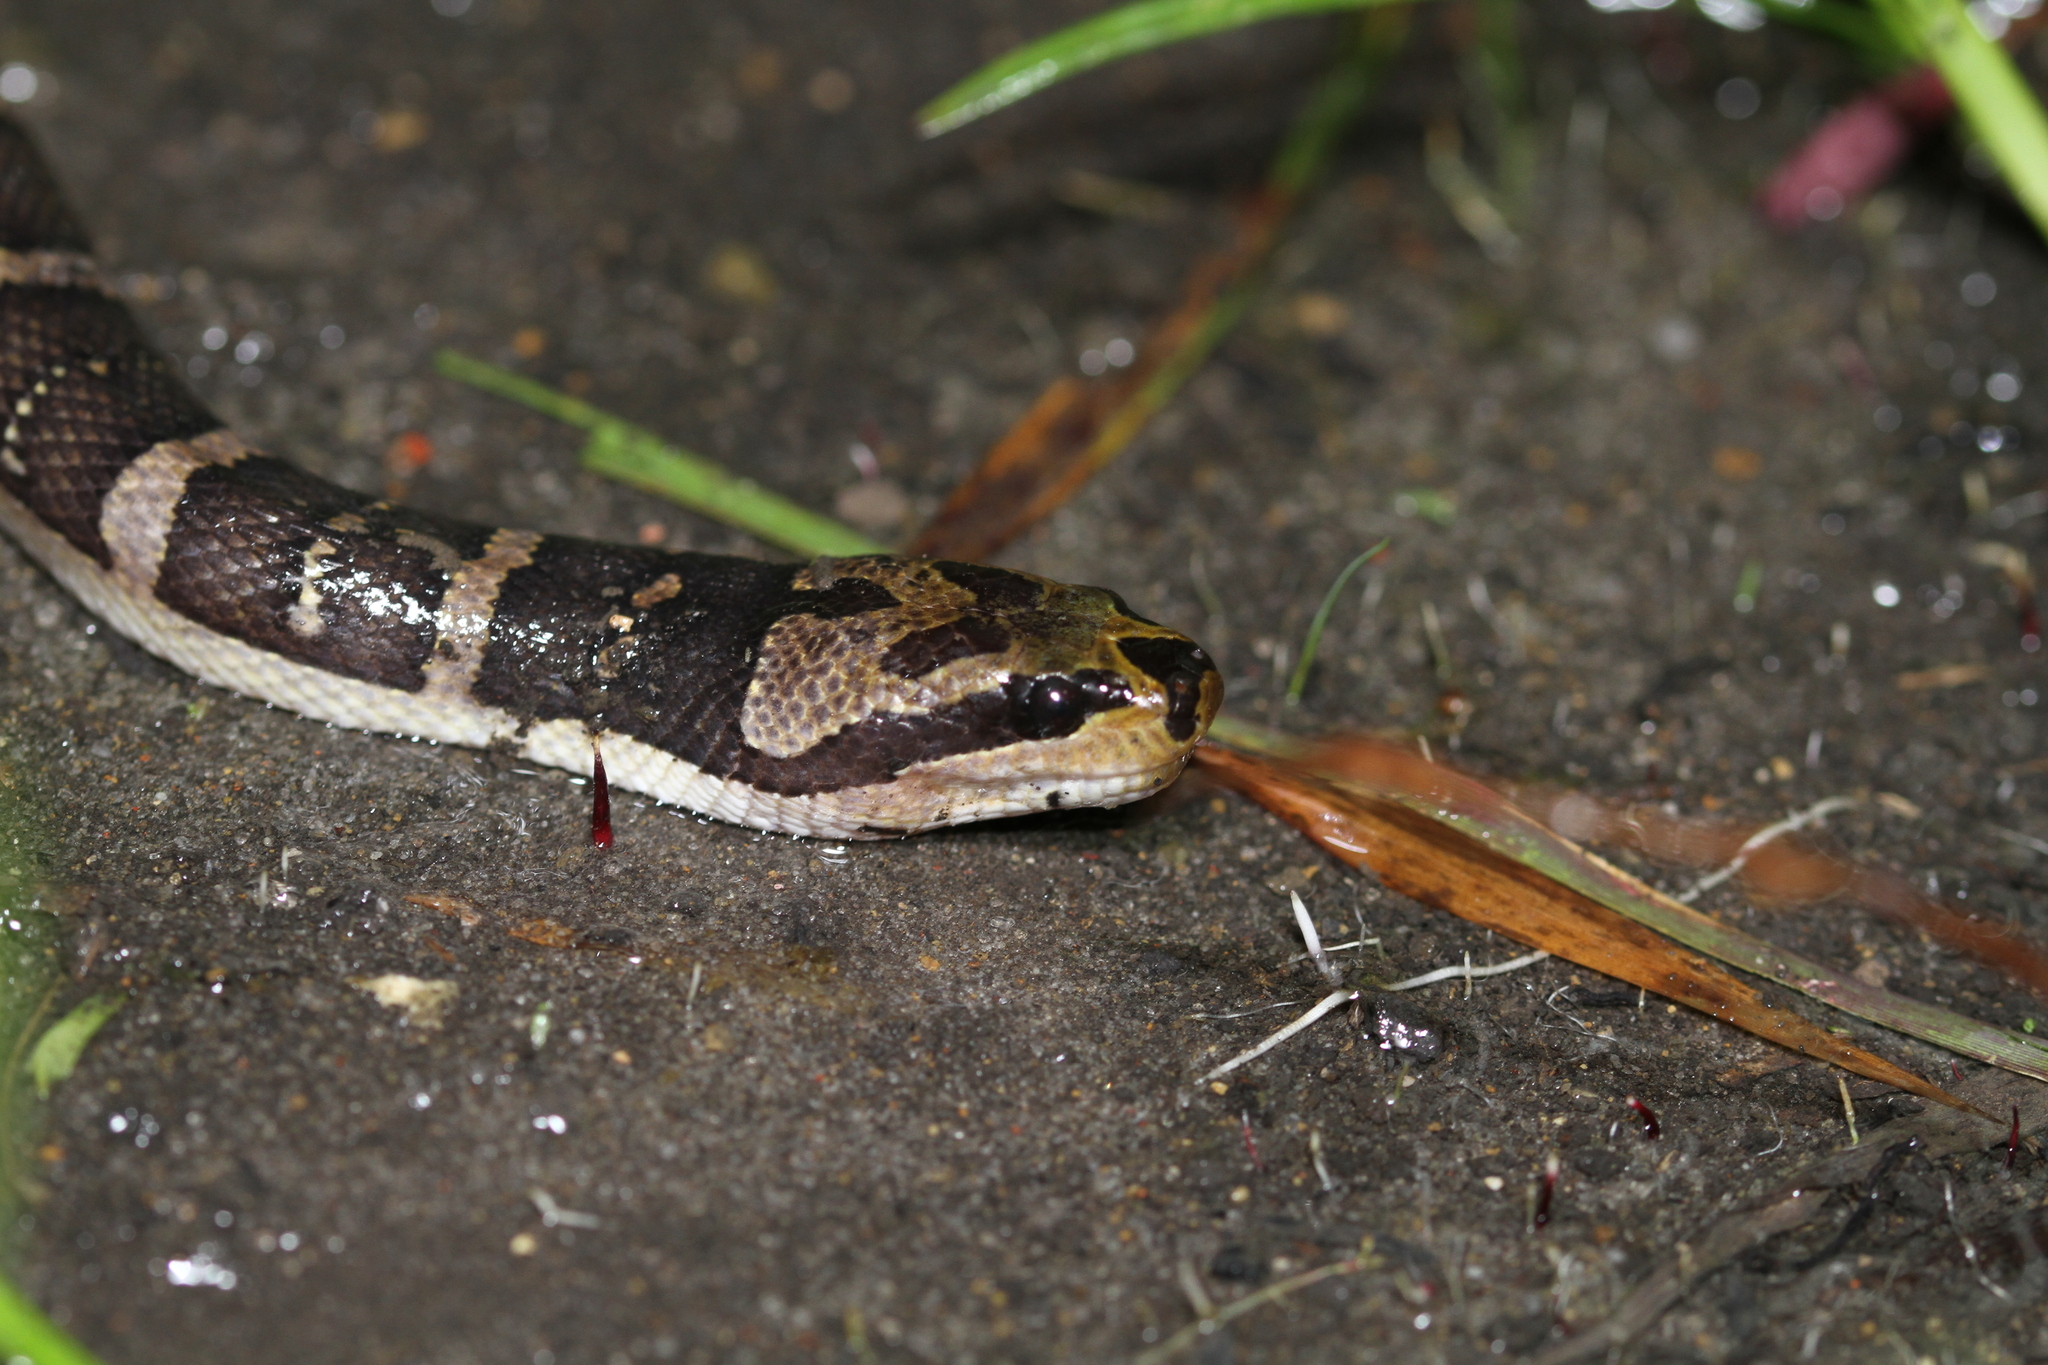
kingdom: Animalia
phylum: Chordata
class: Squamata
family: Homalopsidae
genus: Homalopsis
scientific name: Homalopsis buccata
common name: Masked water snake
